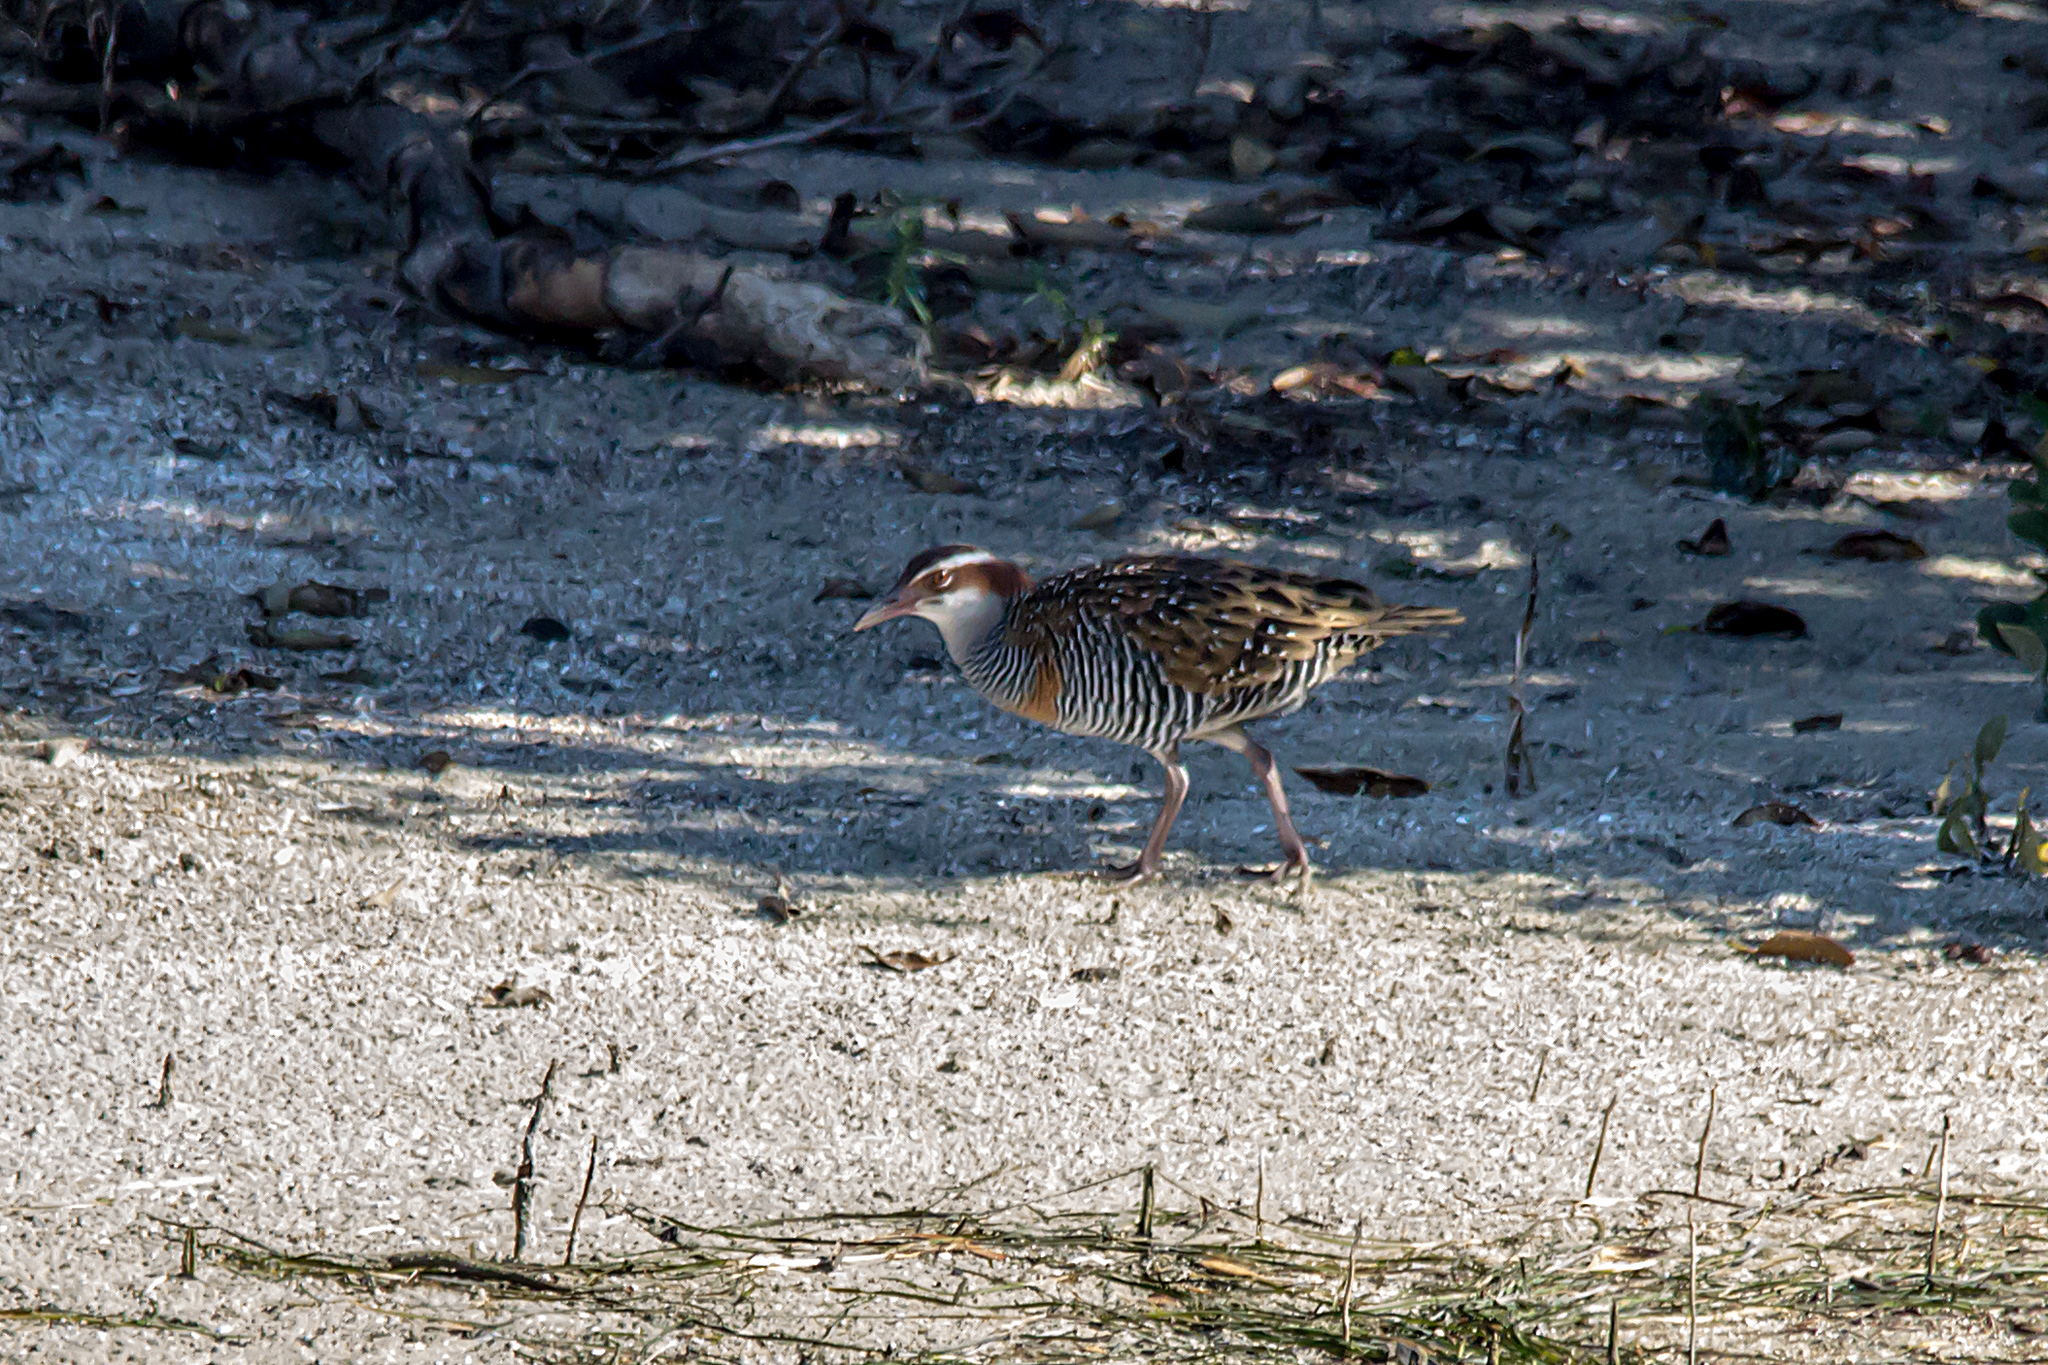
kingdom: Animalia
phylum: Chordata
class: Aves
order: Gruiformes
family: Rallidae
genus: Gallirallus
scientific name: Gallirallus philippensis
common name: Buff-banded rail
